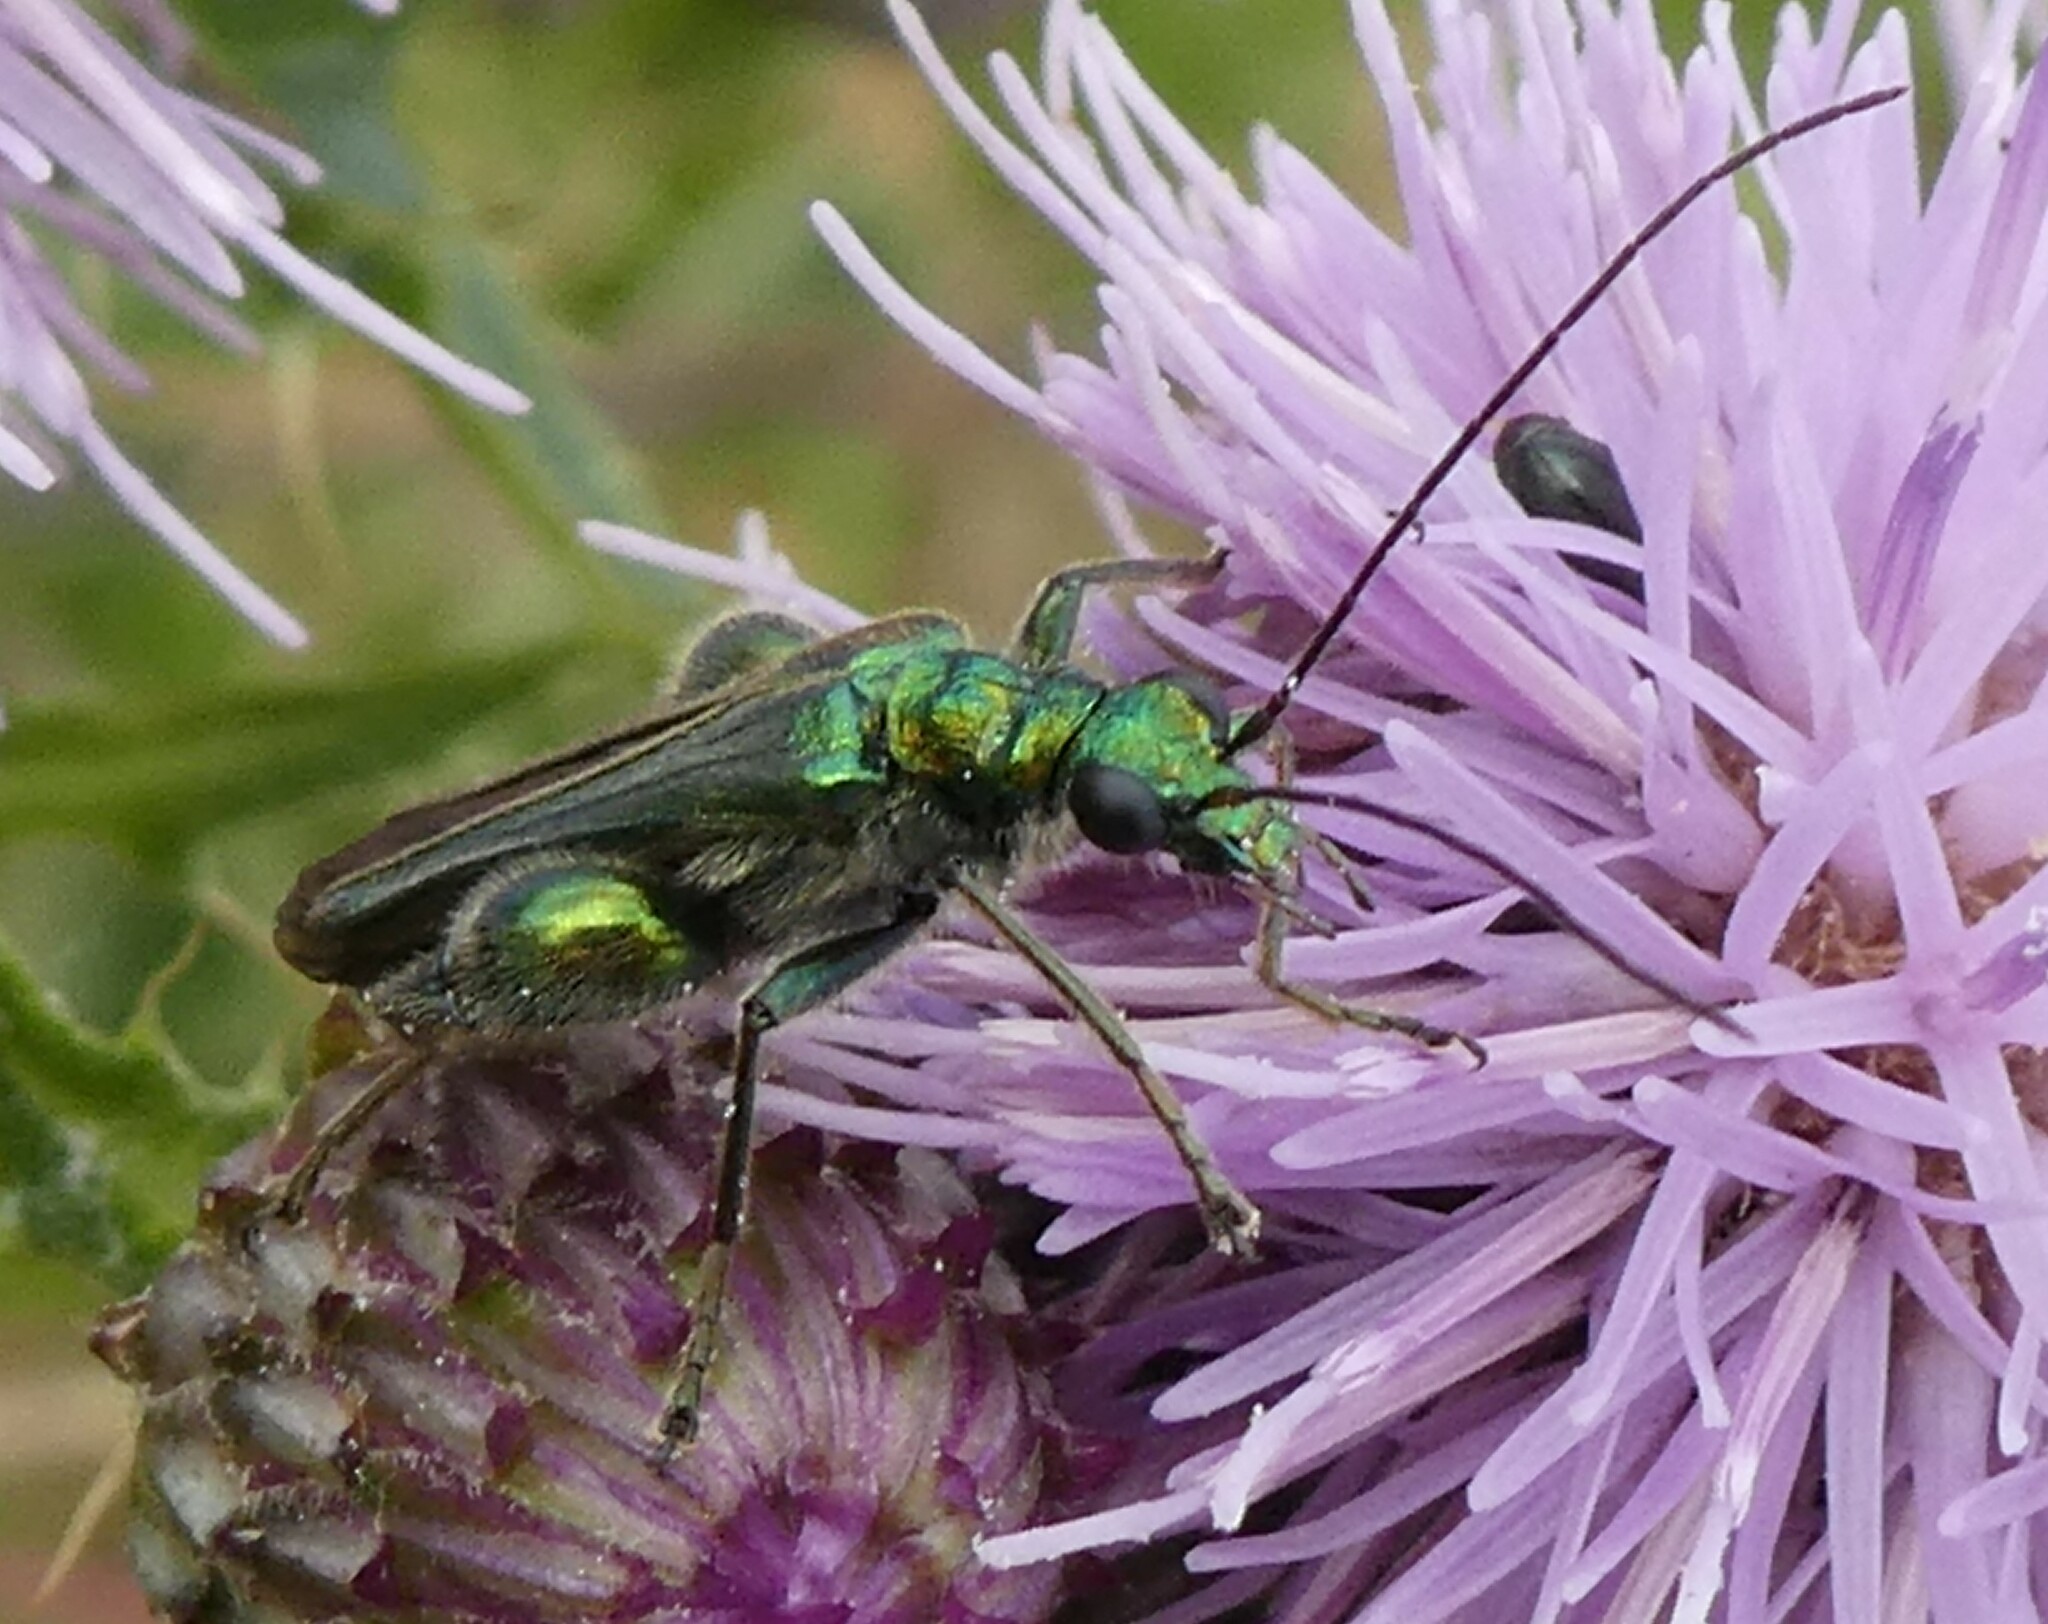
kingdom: Animalia
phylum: Arthropoda
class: Insecta
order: Coleoptera
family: Oedemeridae
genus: Oedemera
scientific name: Oedemera nobilis
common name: Swollen-thighed beetle
